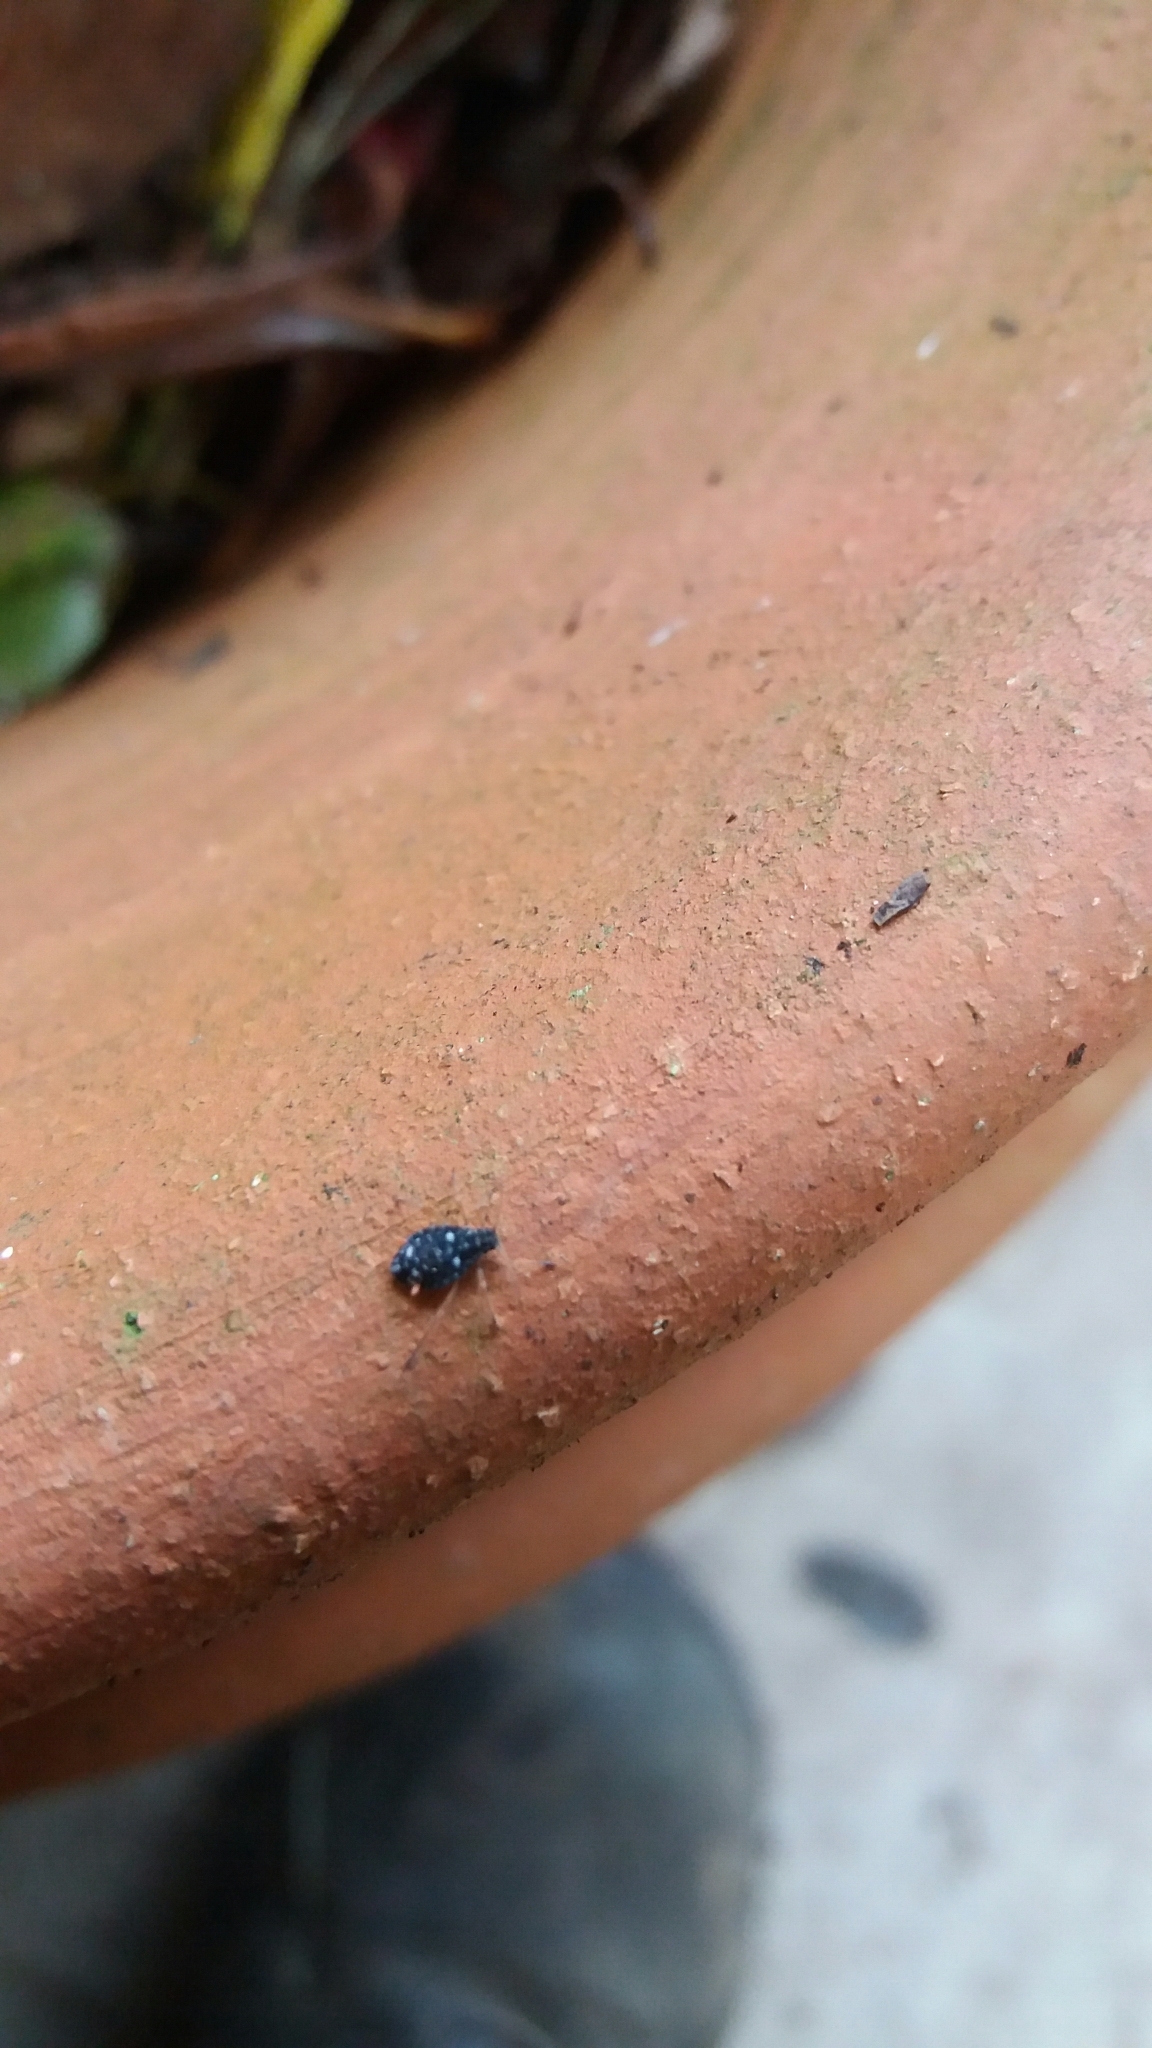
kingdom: Animalia
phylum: Arthropoda
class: Insecta
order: Hemiptera
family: Aphididae
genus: Pterocomma
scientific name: Pterocomma salicis
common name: Aphid
